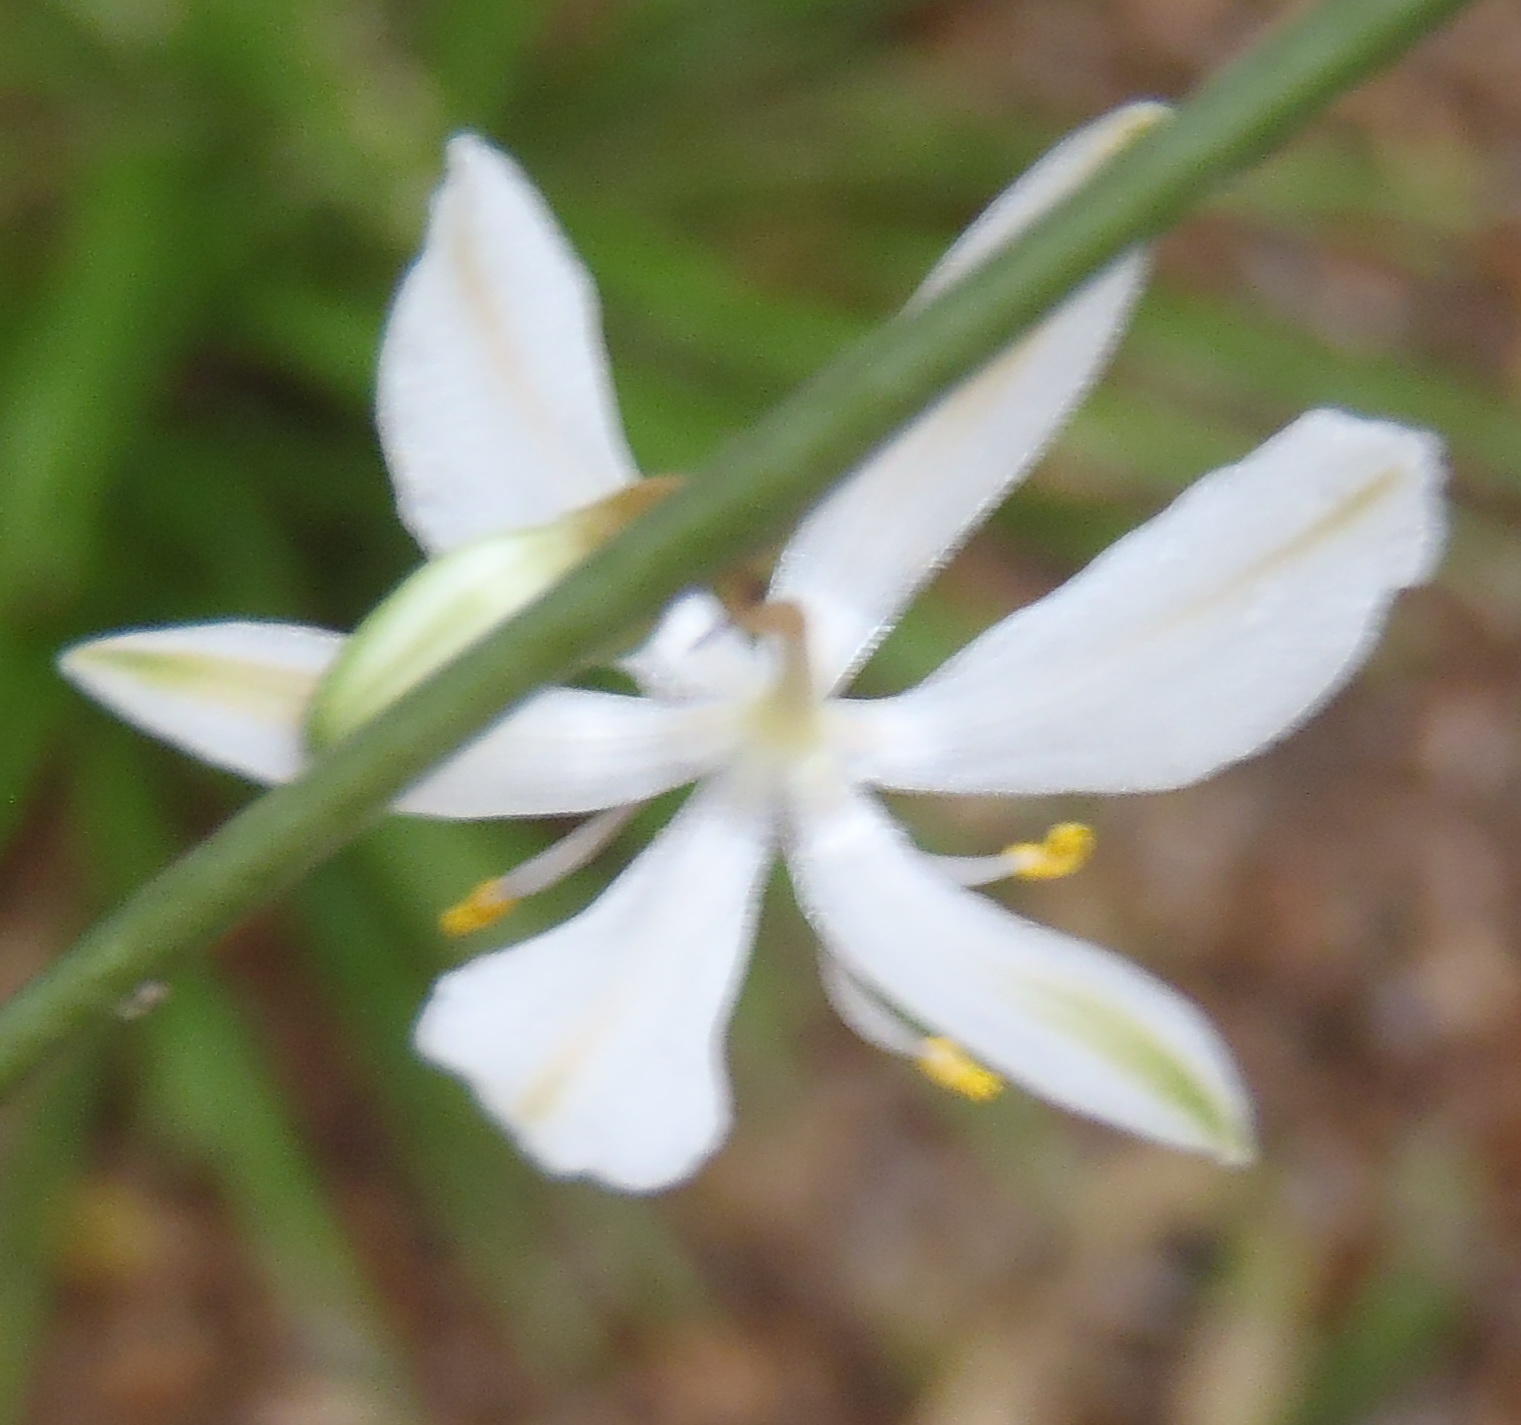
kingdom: Plantae
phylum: Tracheophyta
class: Liliopsida
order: Asparagales
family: Asparagaceae
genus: Chlorophytum
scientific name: Chlorophytum comosum
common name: Spider plant
